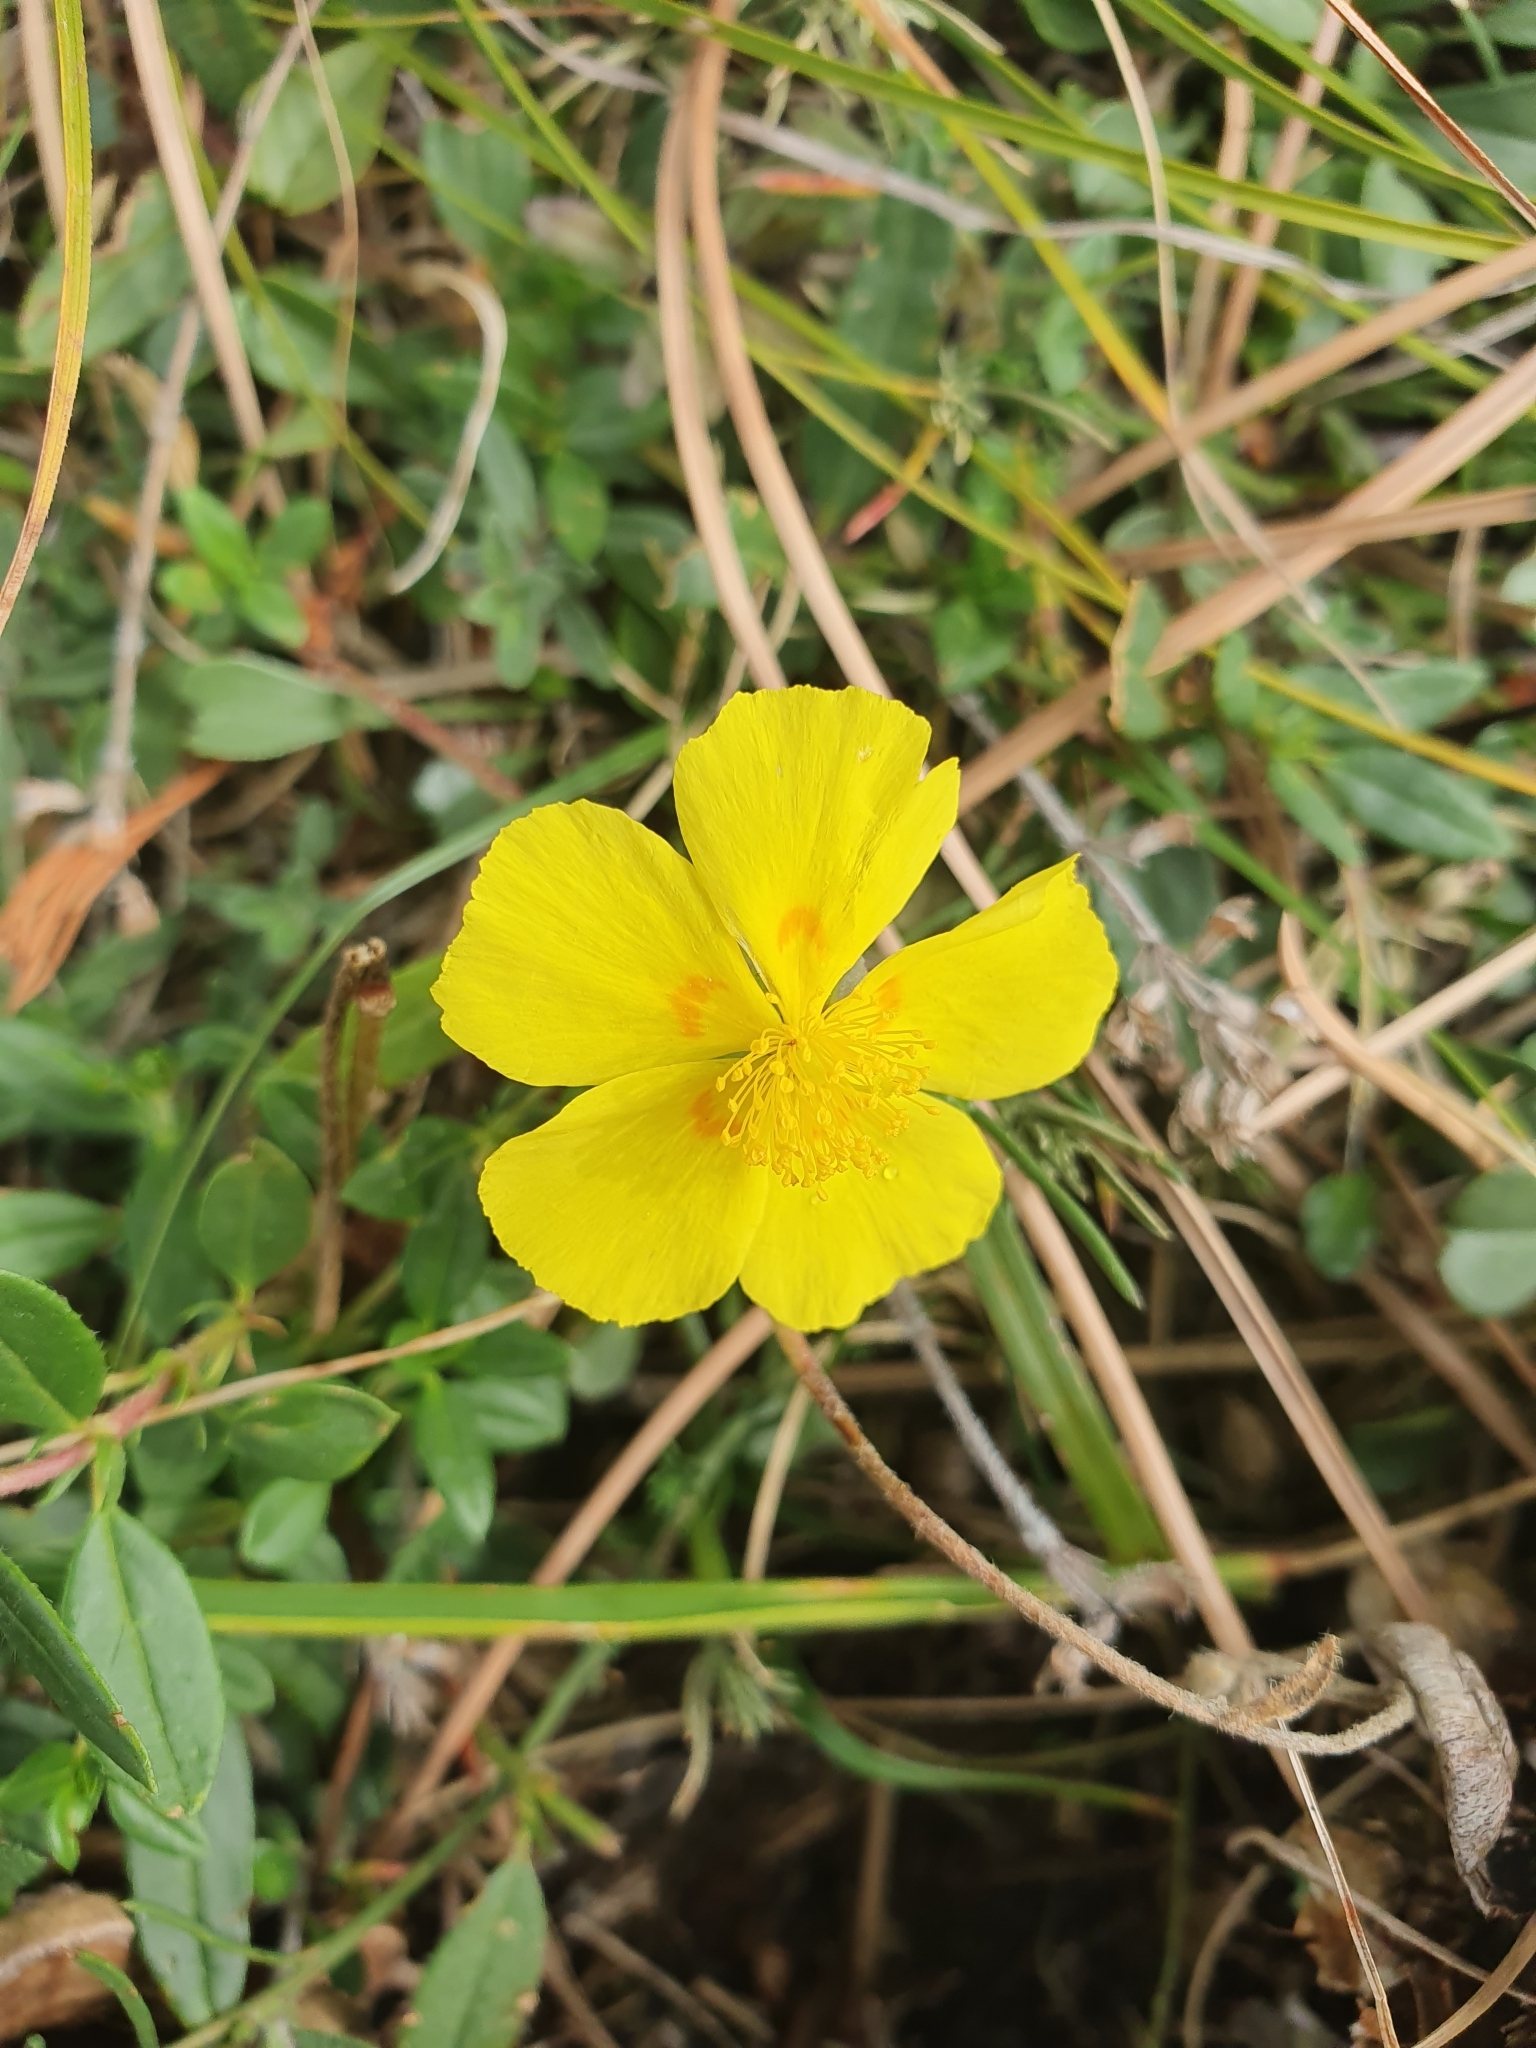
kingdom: Plantae
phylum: Tracheophyta
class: Magnoliopsida
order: Malvales
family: Cistaceae
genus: Helianthemum
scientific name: Helianthemum nummularium
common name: Common rock-rose
